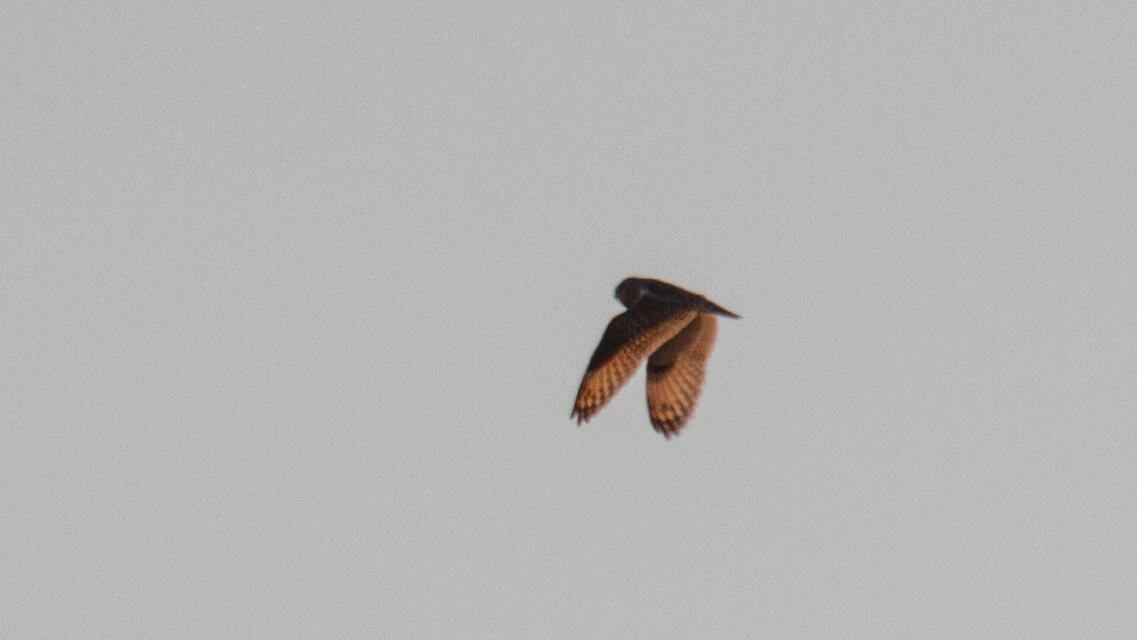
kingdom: Animalia
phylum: Chordata
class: Aves
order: Strigiformes
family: Strigidae
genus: Asio
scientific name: Asio flammeus
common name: Short-eared owl
